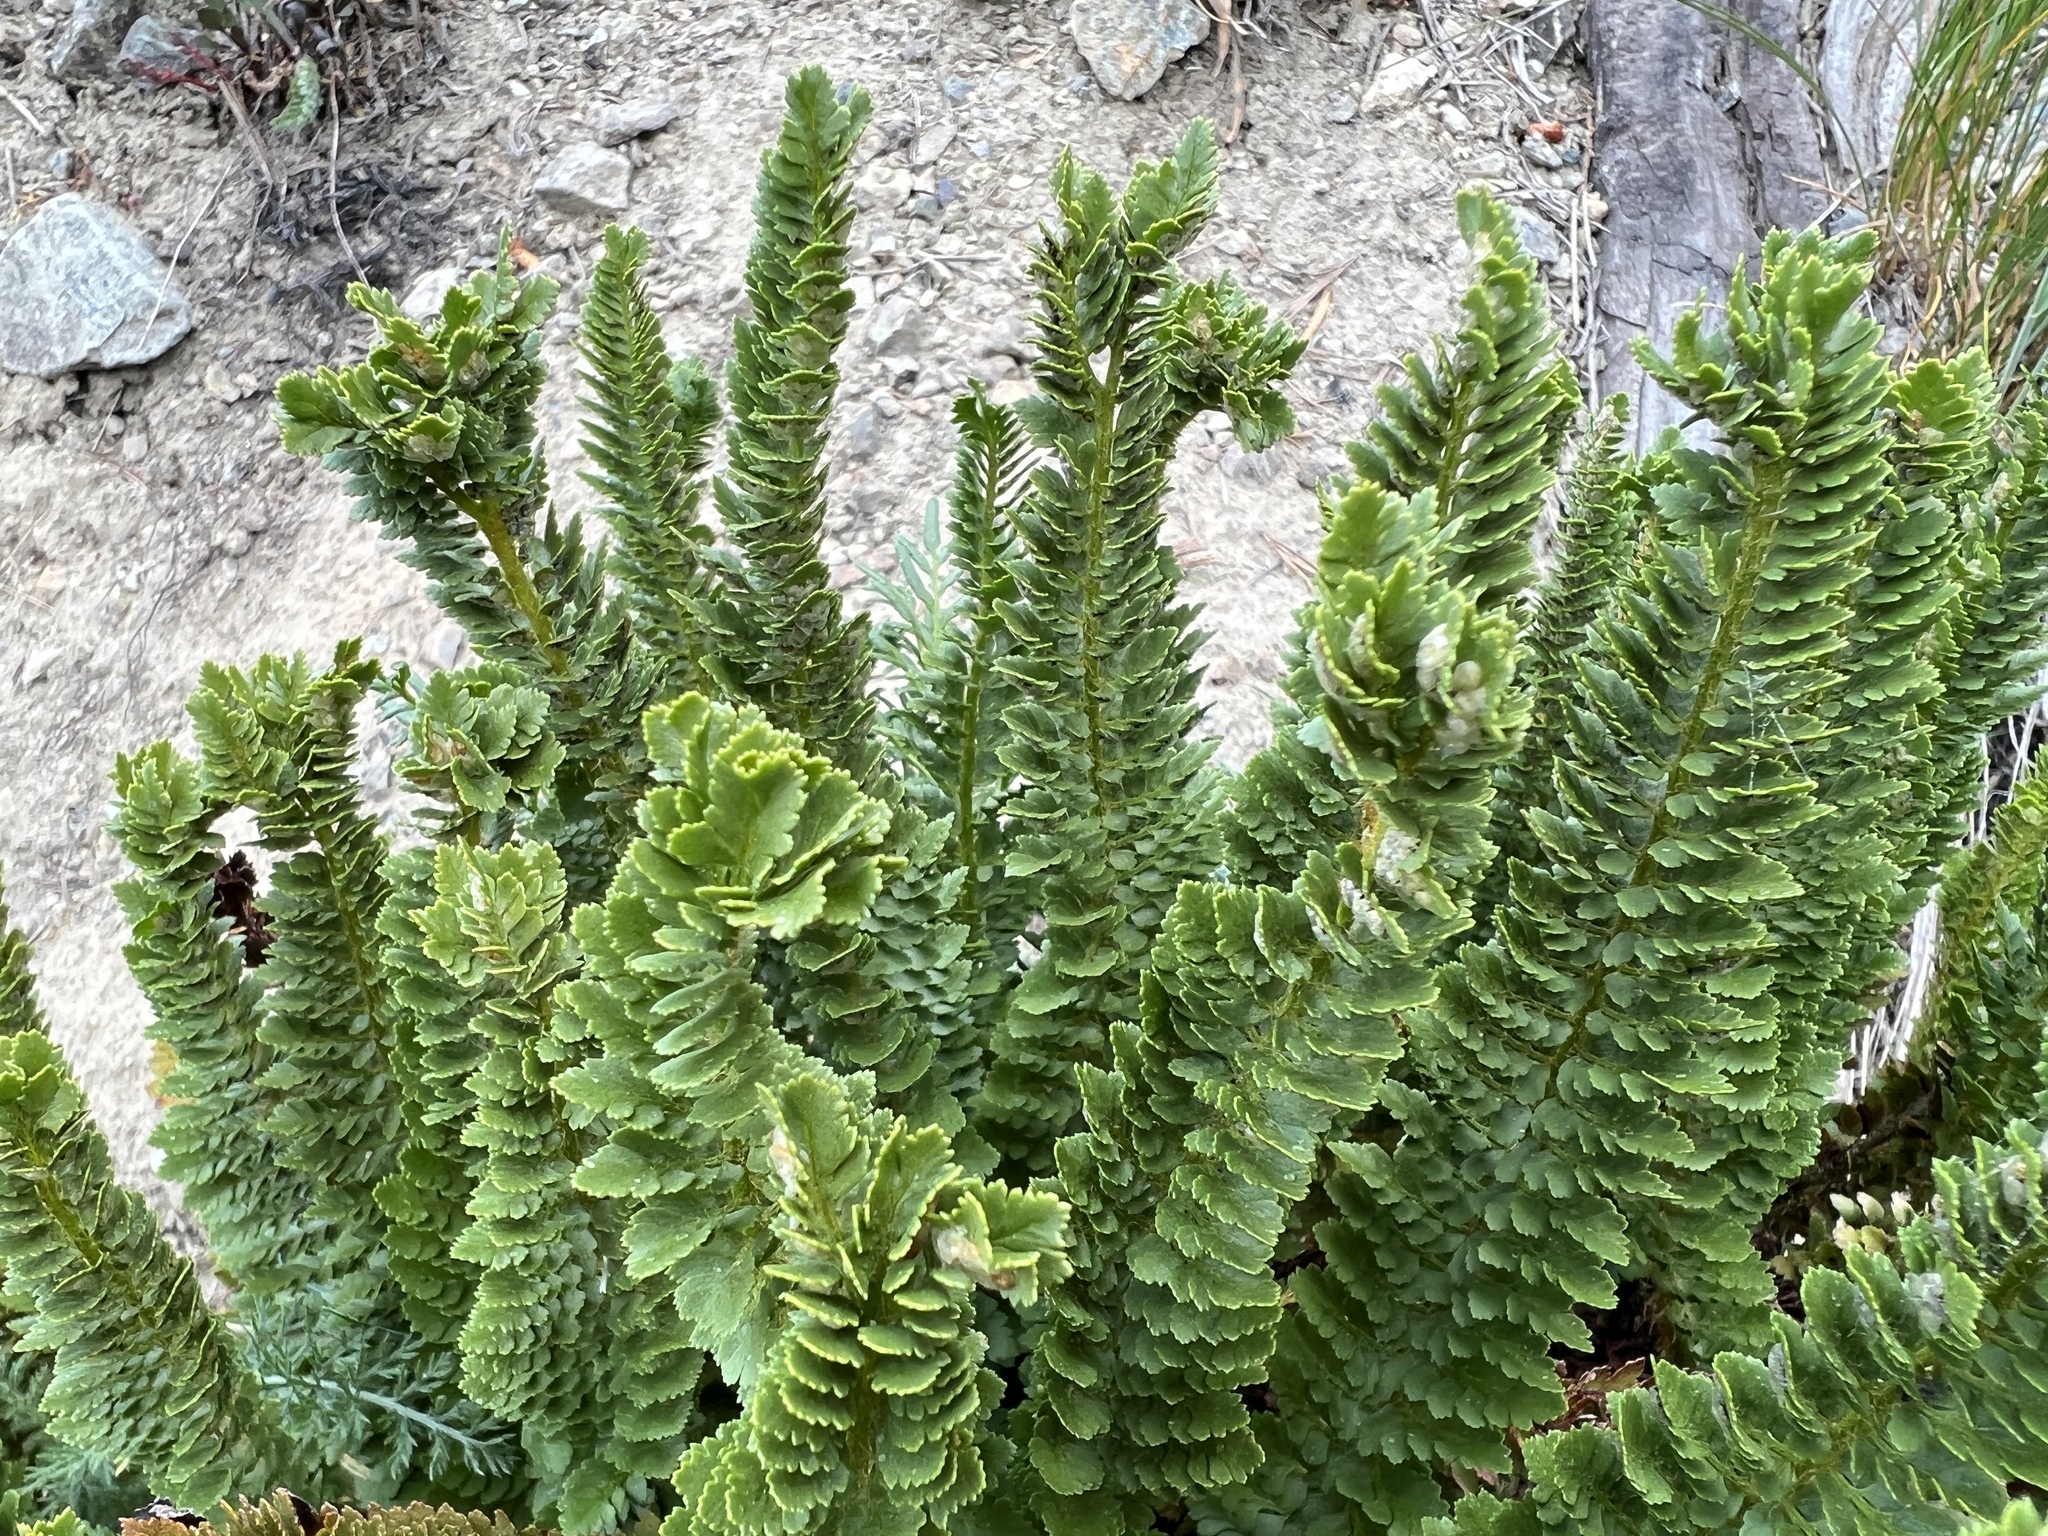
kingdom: Plantae
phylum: Tracheophyta
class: Polypodiopsida
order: Polypodiales
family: Dryopteridaceae
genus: Polystichum
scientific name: Polystichum lemmonii
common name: Lemmon's holly fern
